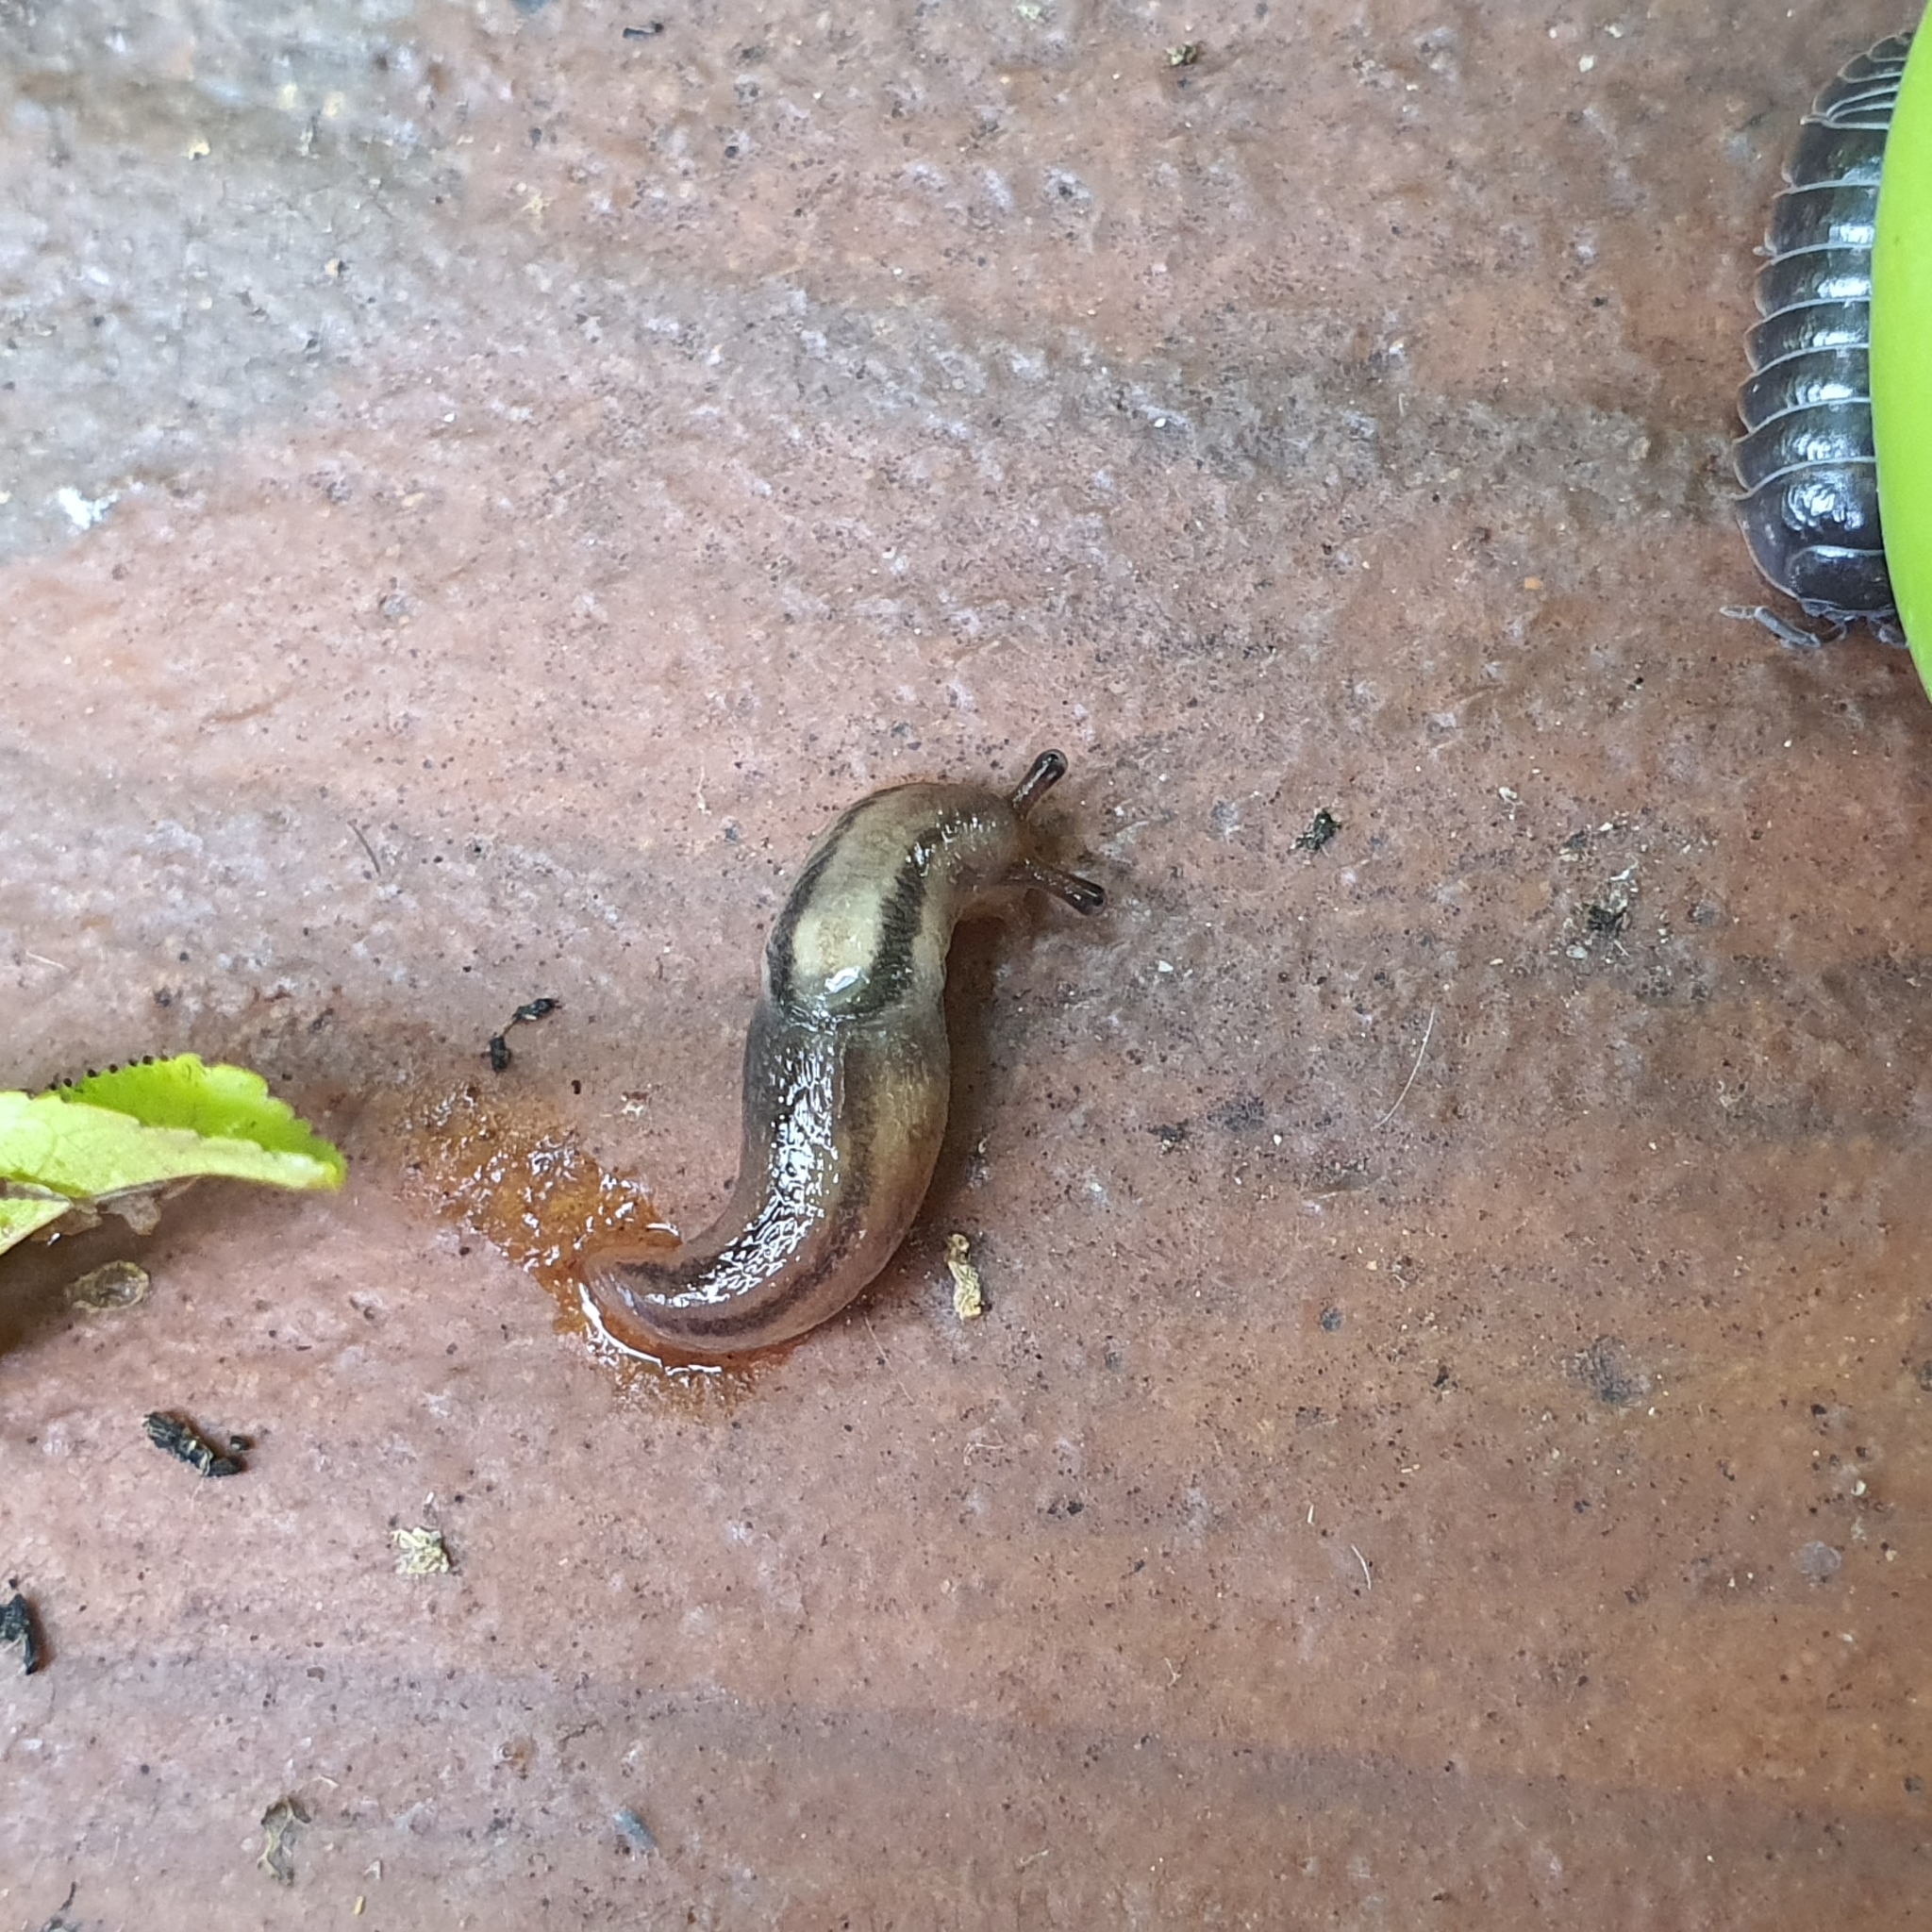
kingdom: Animalia
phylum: Mollusca
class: Gastropoda
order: Stylommatophora
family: Limacidae
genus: Ambigolimax
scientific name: Ambigolimax
